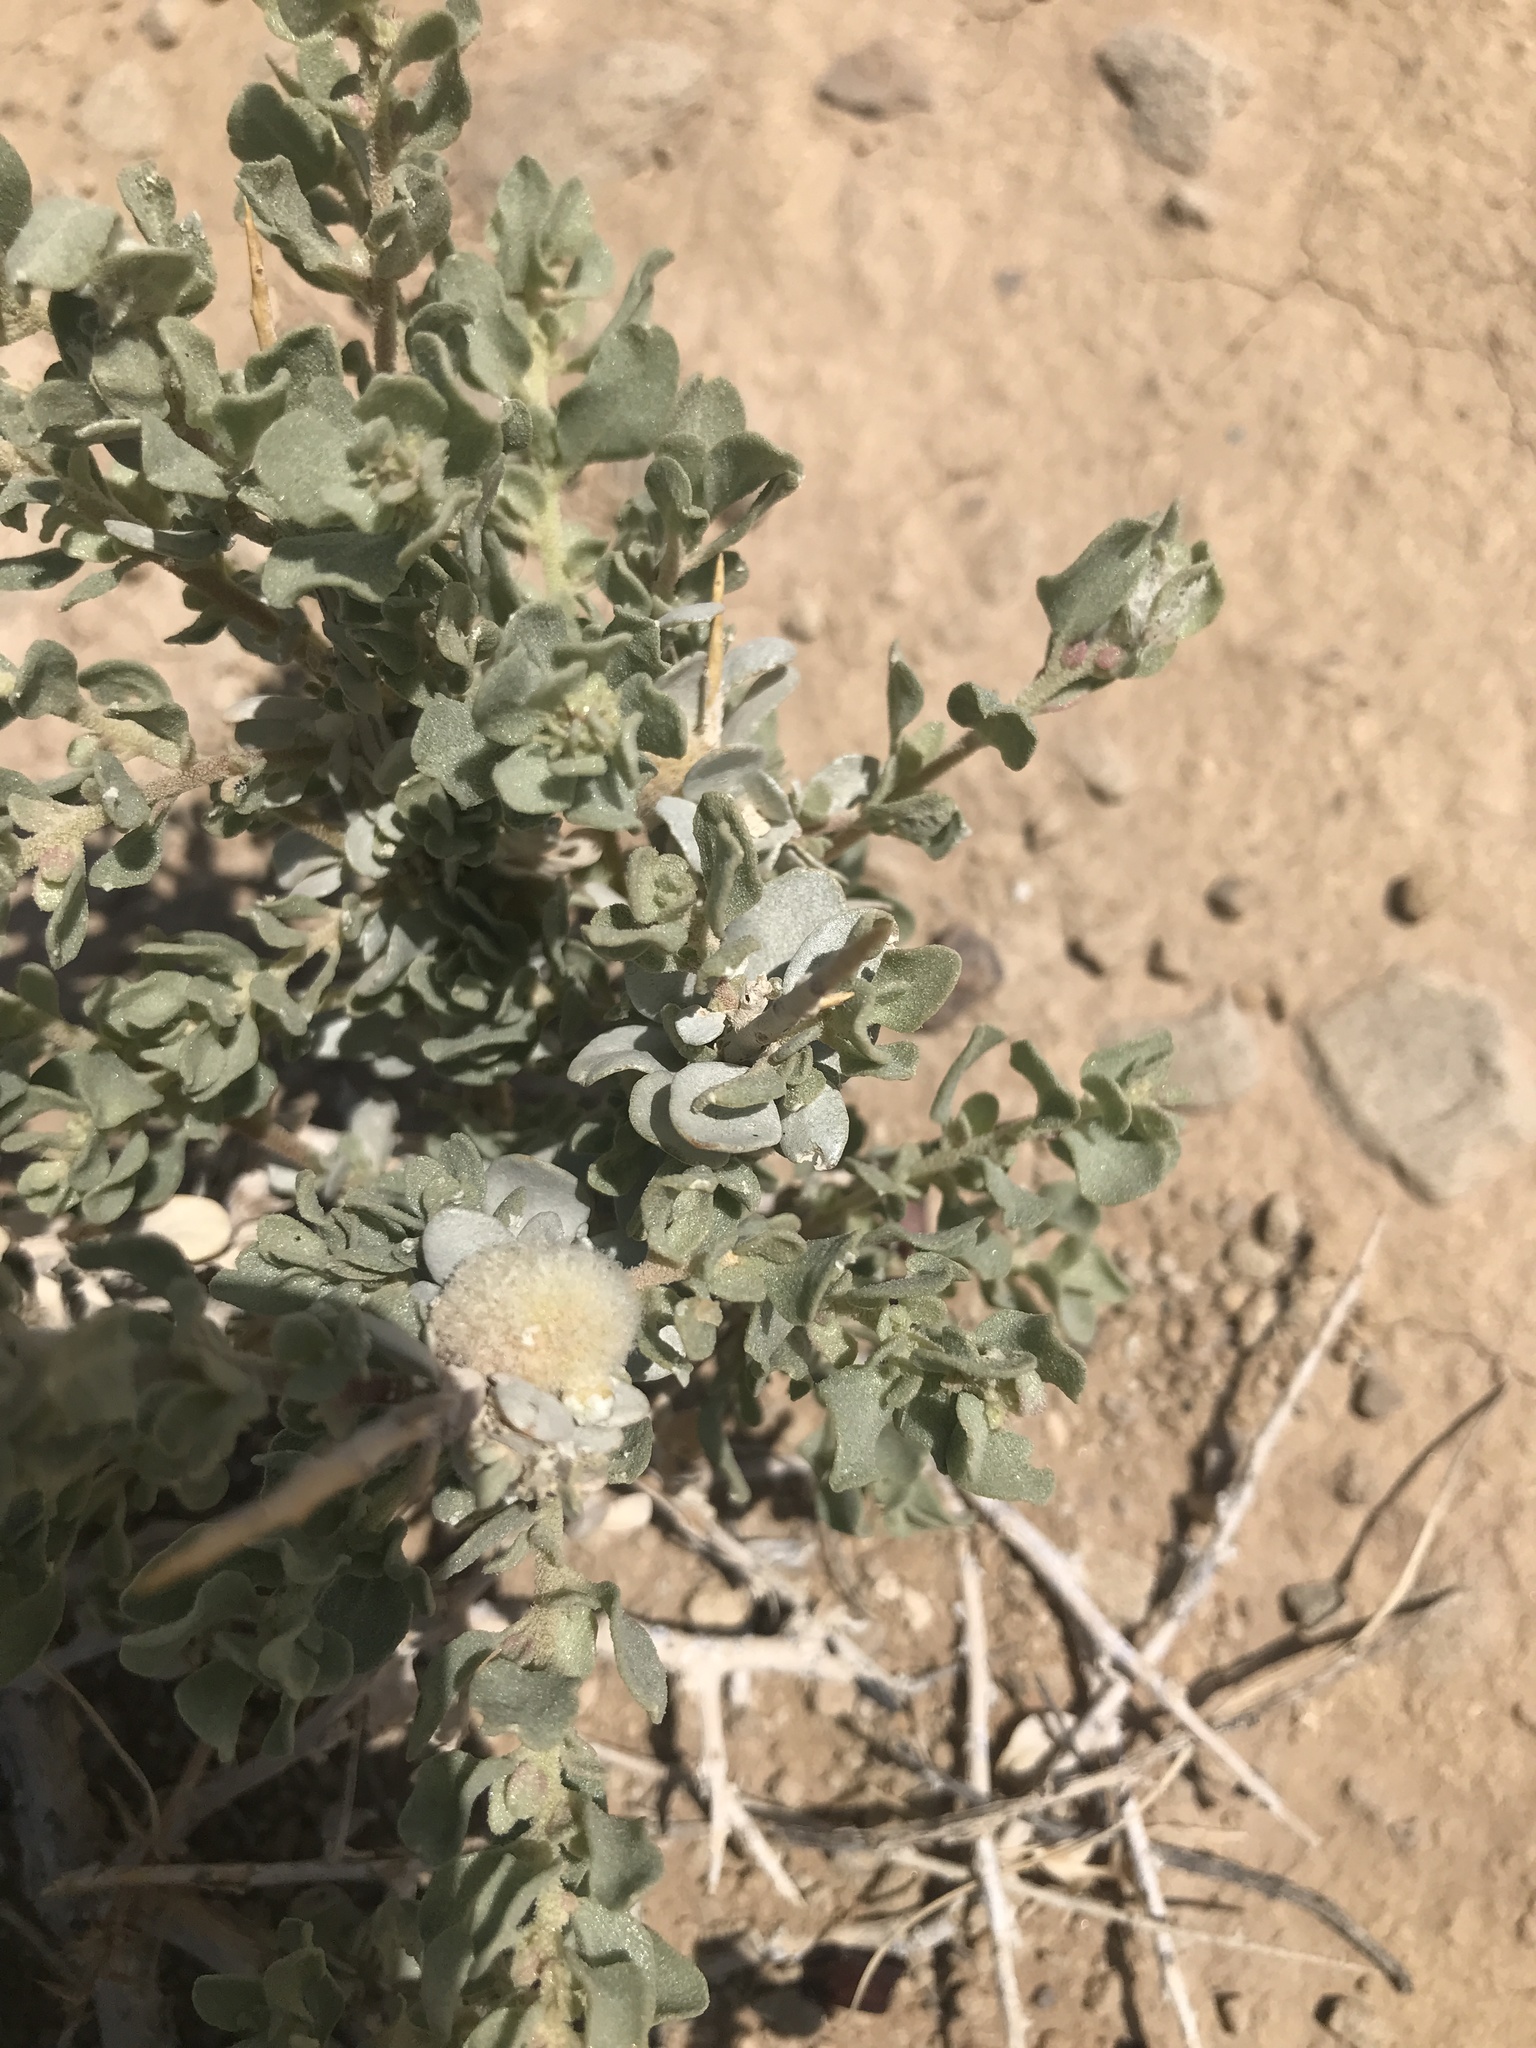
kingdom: Plantae
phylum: Tracheophyta
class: Magnoliopsida
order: Caryophyllales
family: Amaranthaceae
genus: Atriplex
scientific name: Atriplex confertifolia
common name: Shadscale
